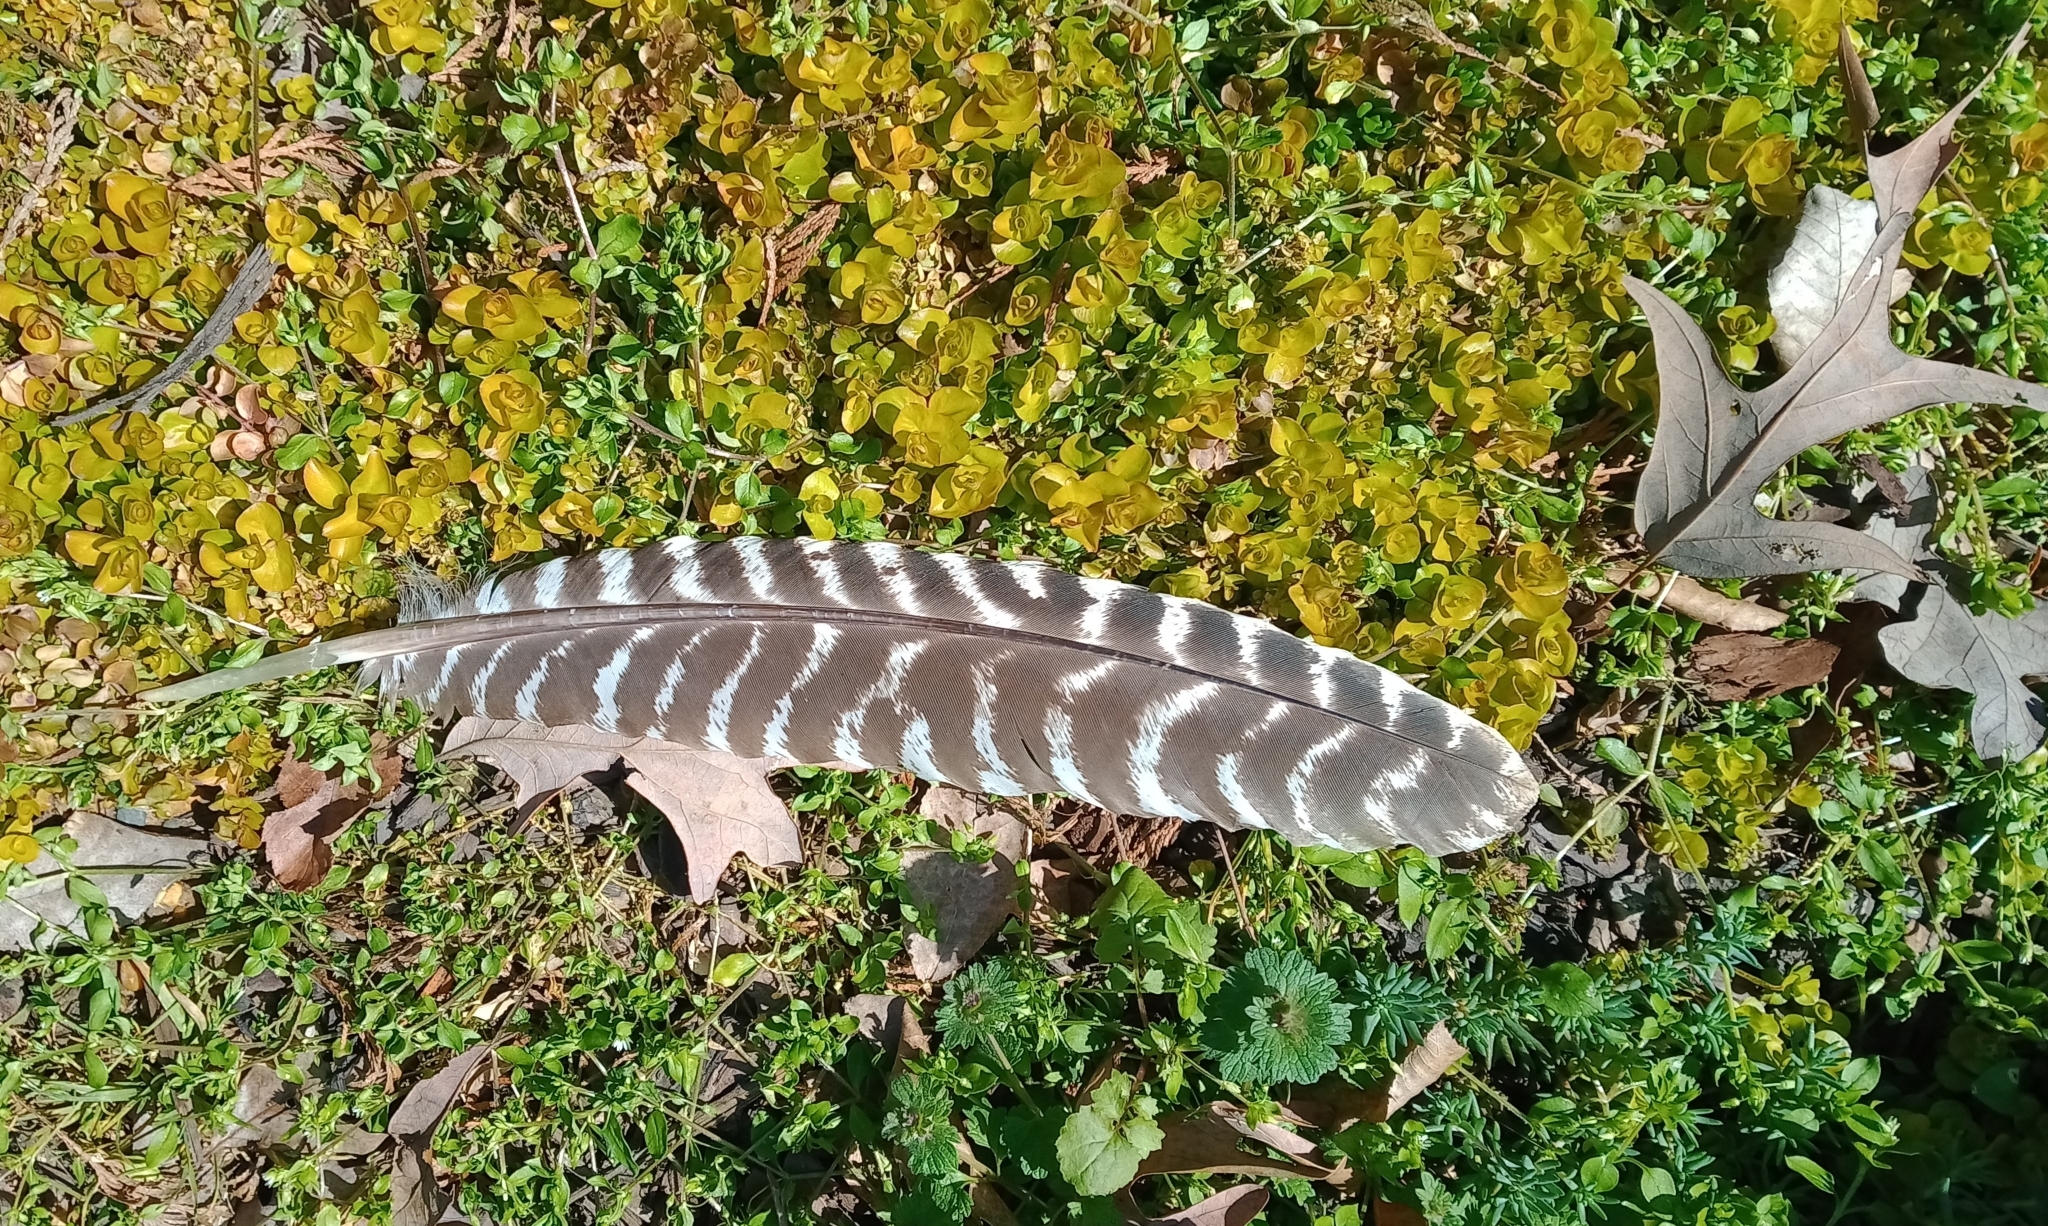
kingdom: Animalia
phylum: Chordata
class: Aves
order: Galliformes
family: Phasianidae
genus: Meleagris
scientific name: Meleagris gallopavo
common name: Wild turkey
